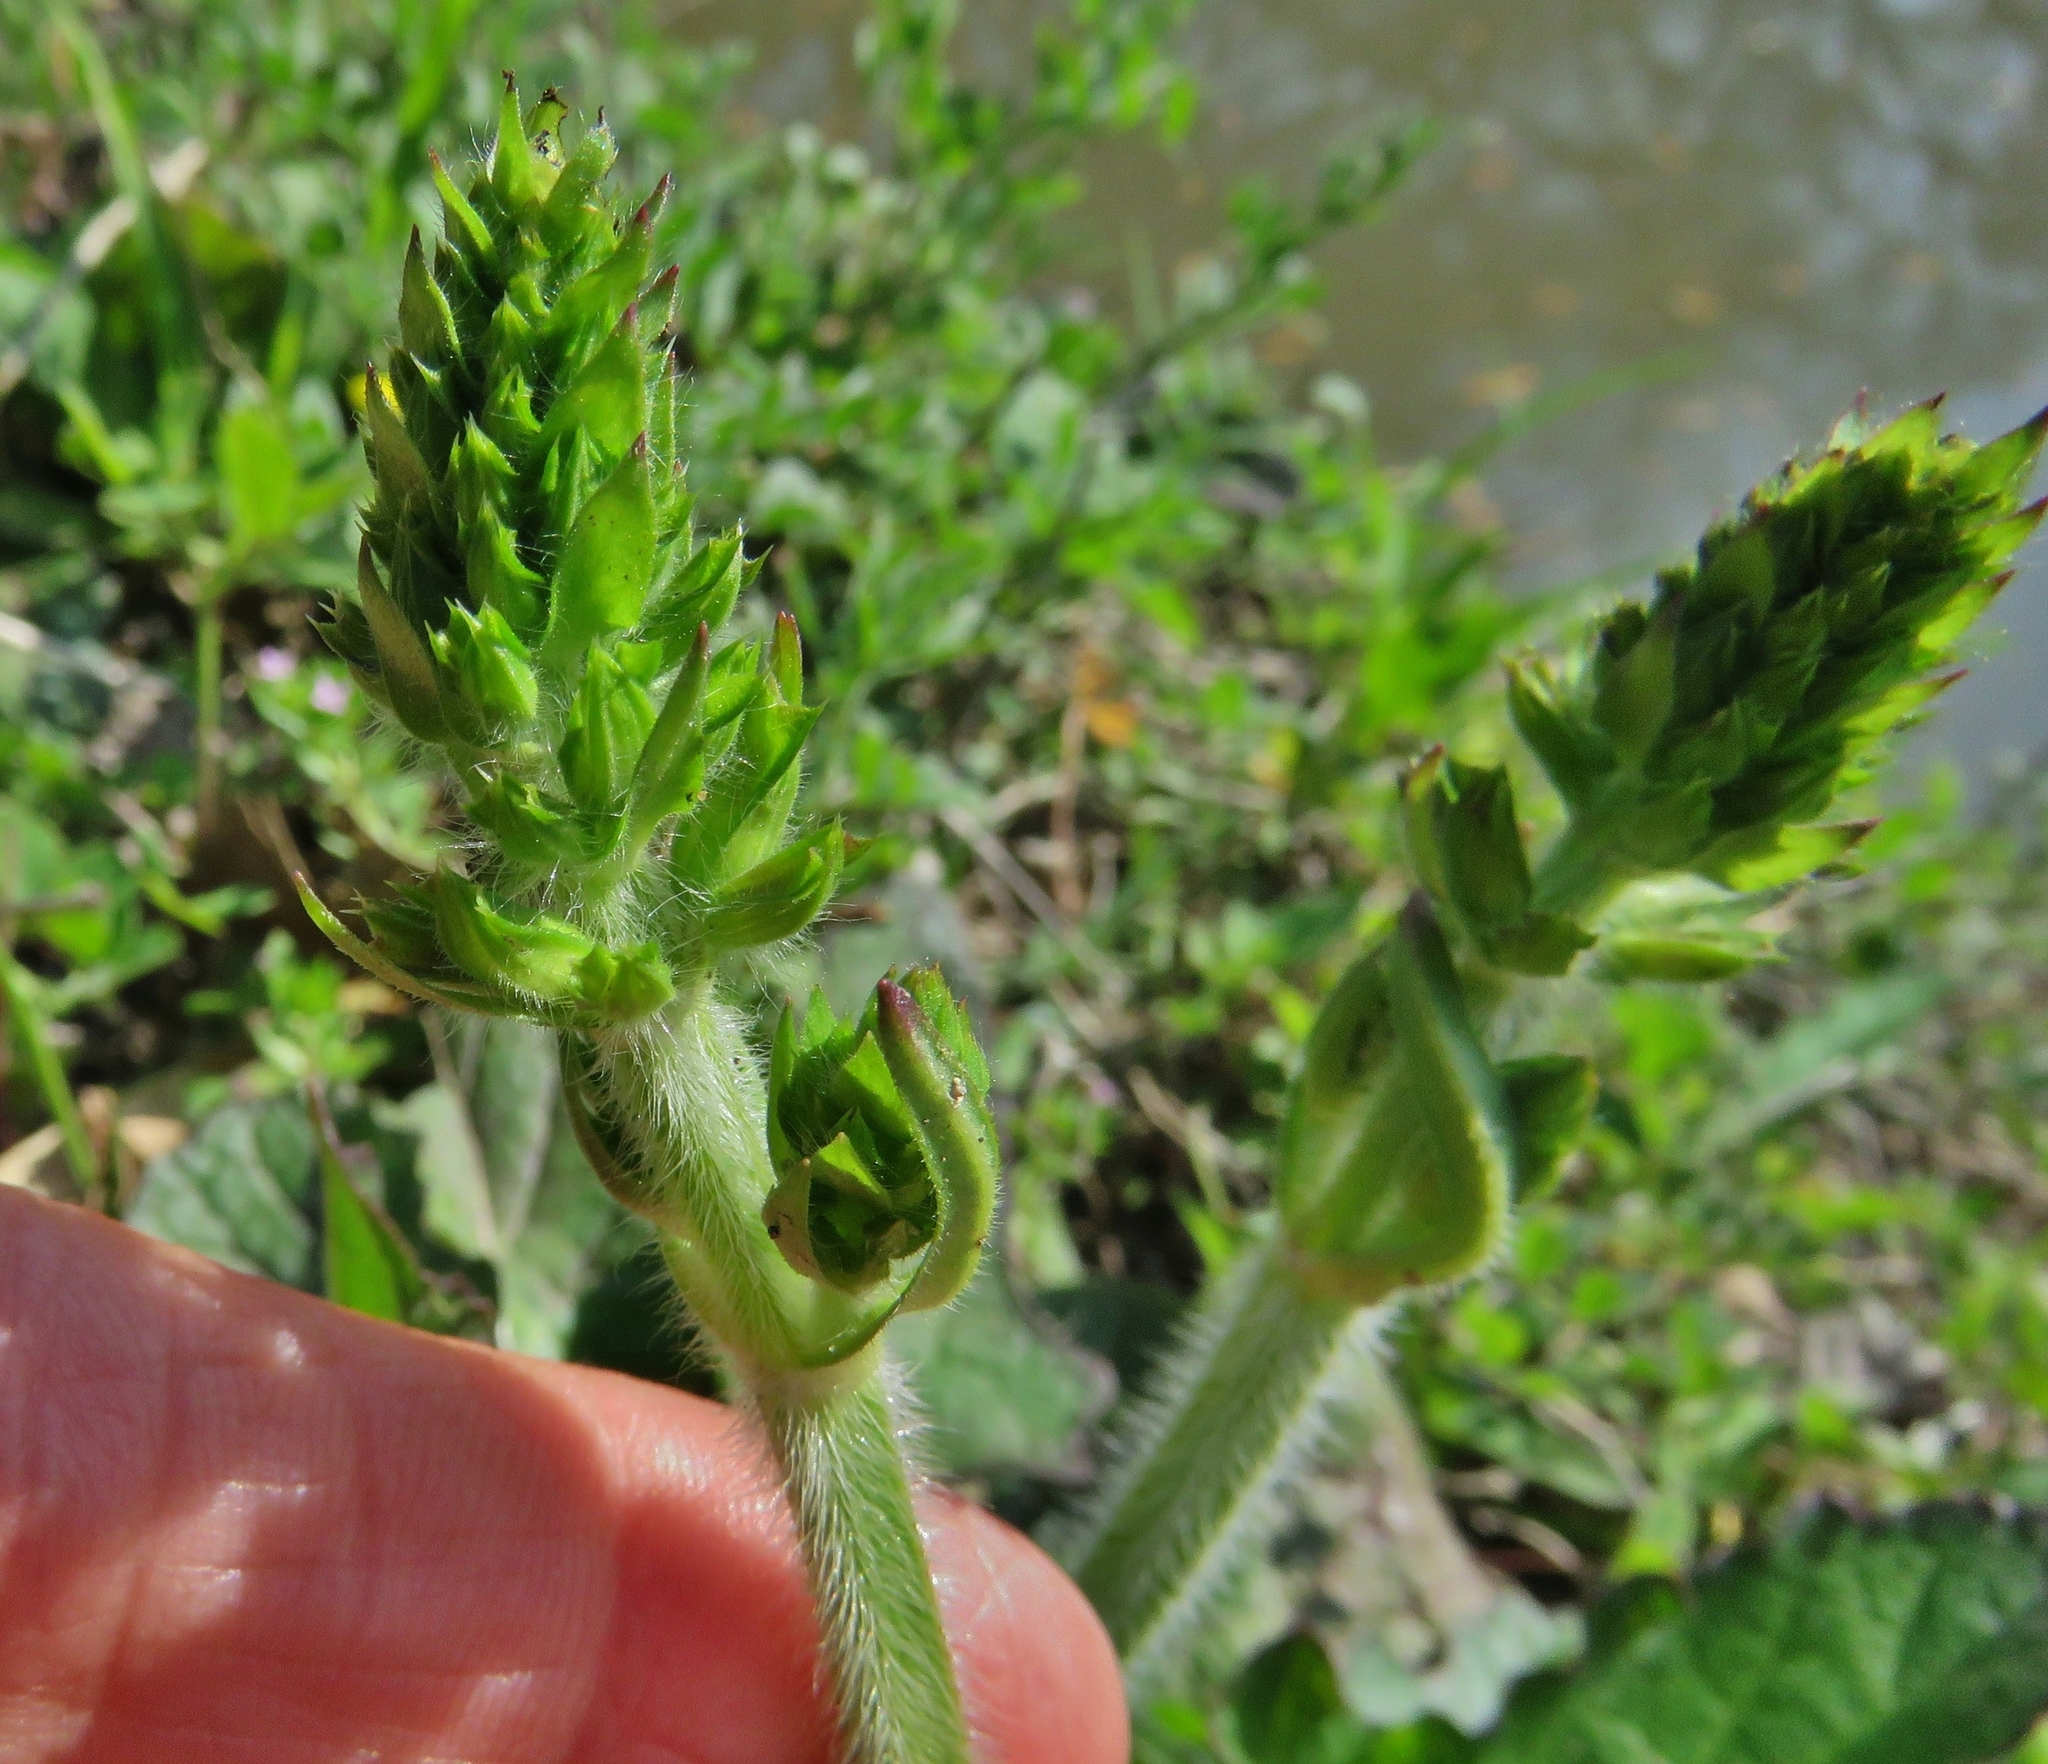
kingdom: Plantae
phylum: Tracheophyta
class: Magnoliopsida
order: Lamiales
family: Lamiaceae
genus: Salvia
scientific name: Salvia lyrata
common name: Cancerweed
